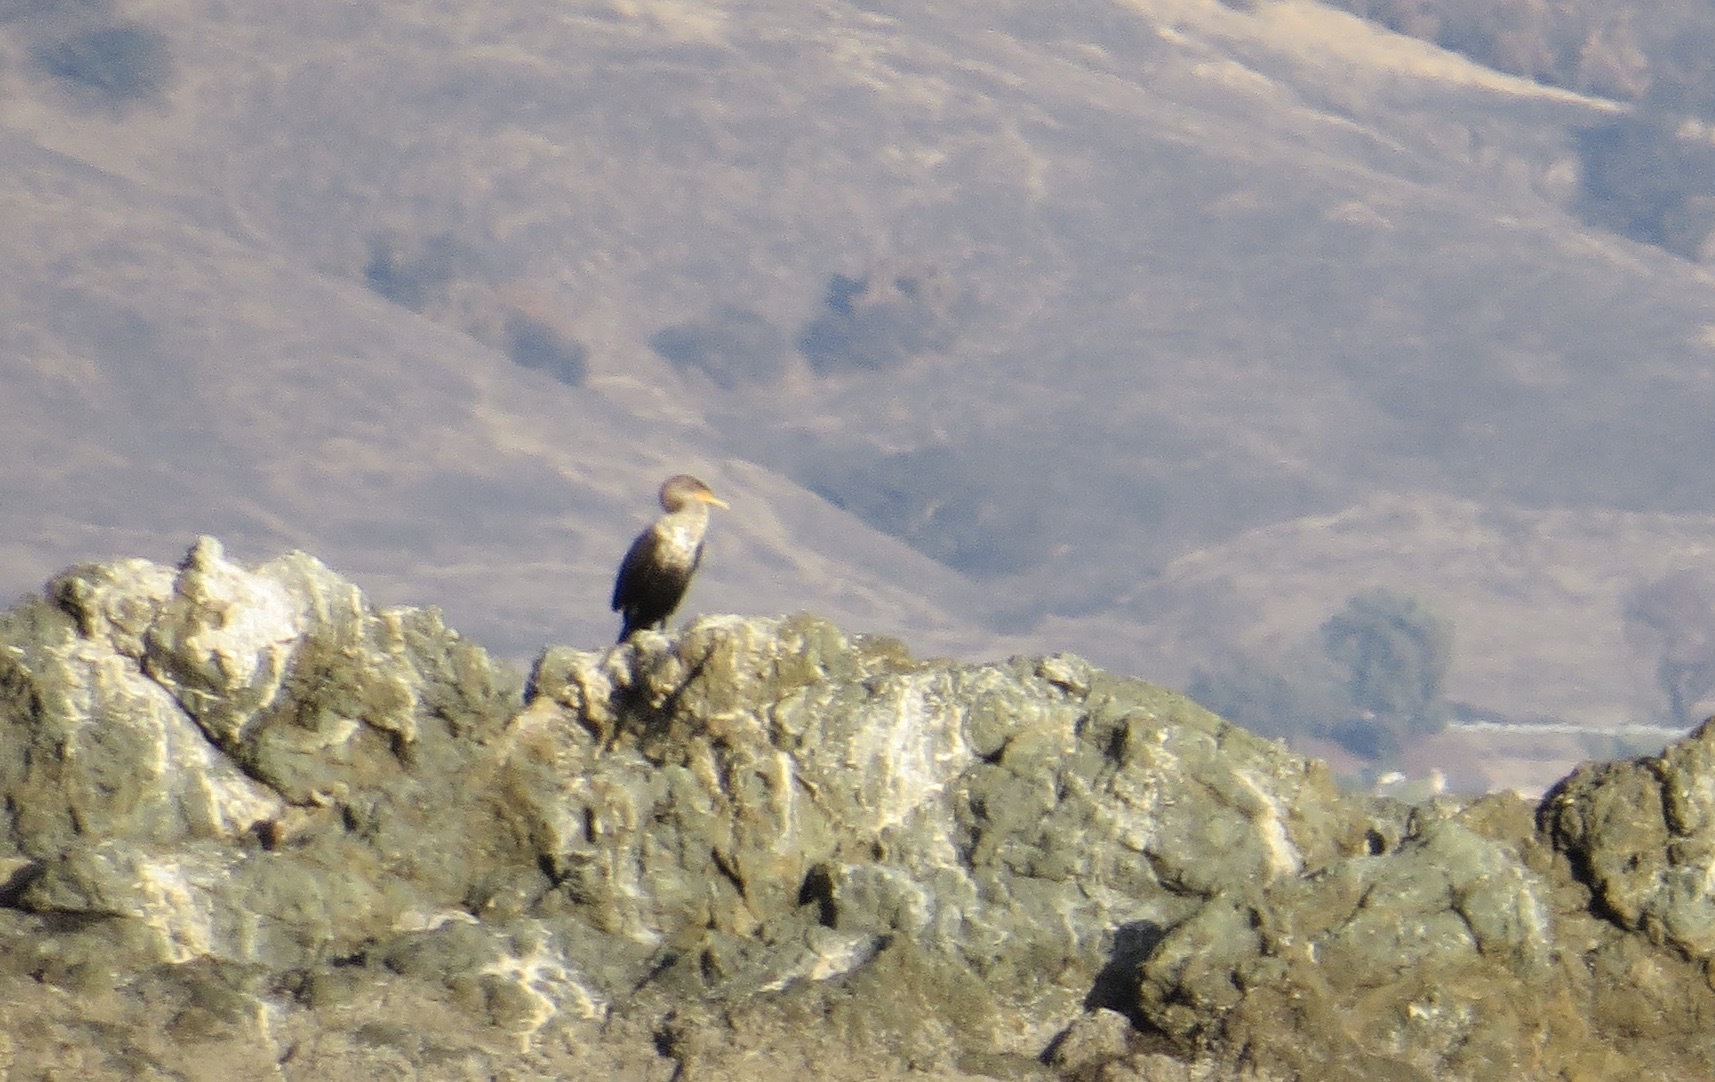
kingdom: Animalia
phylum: Chordata
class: Aves
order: Suliformes
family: Phalacrocoracidae
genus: Phalacrocorax
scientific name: Phalacrocorax auritus
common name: Double-crested cormorant
